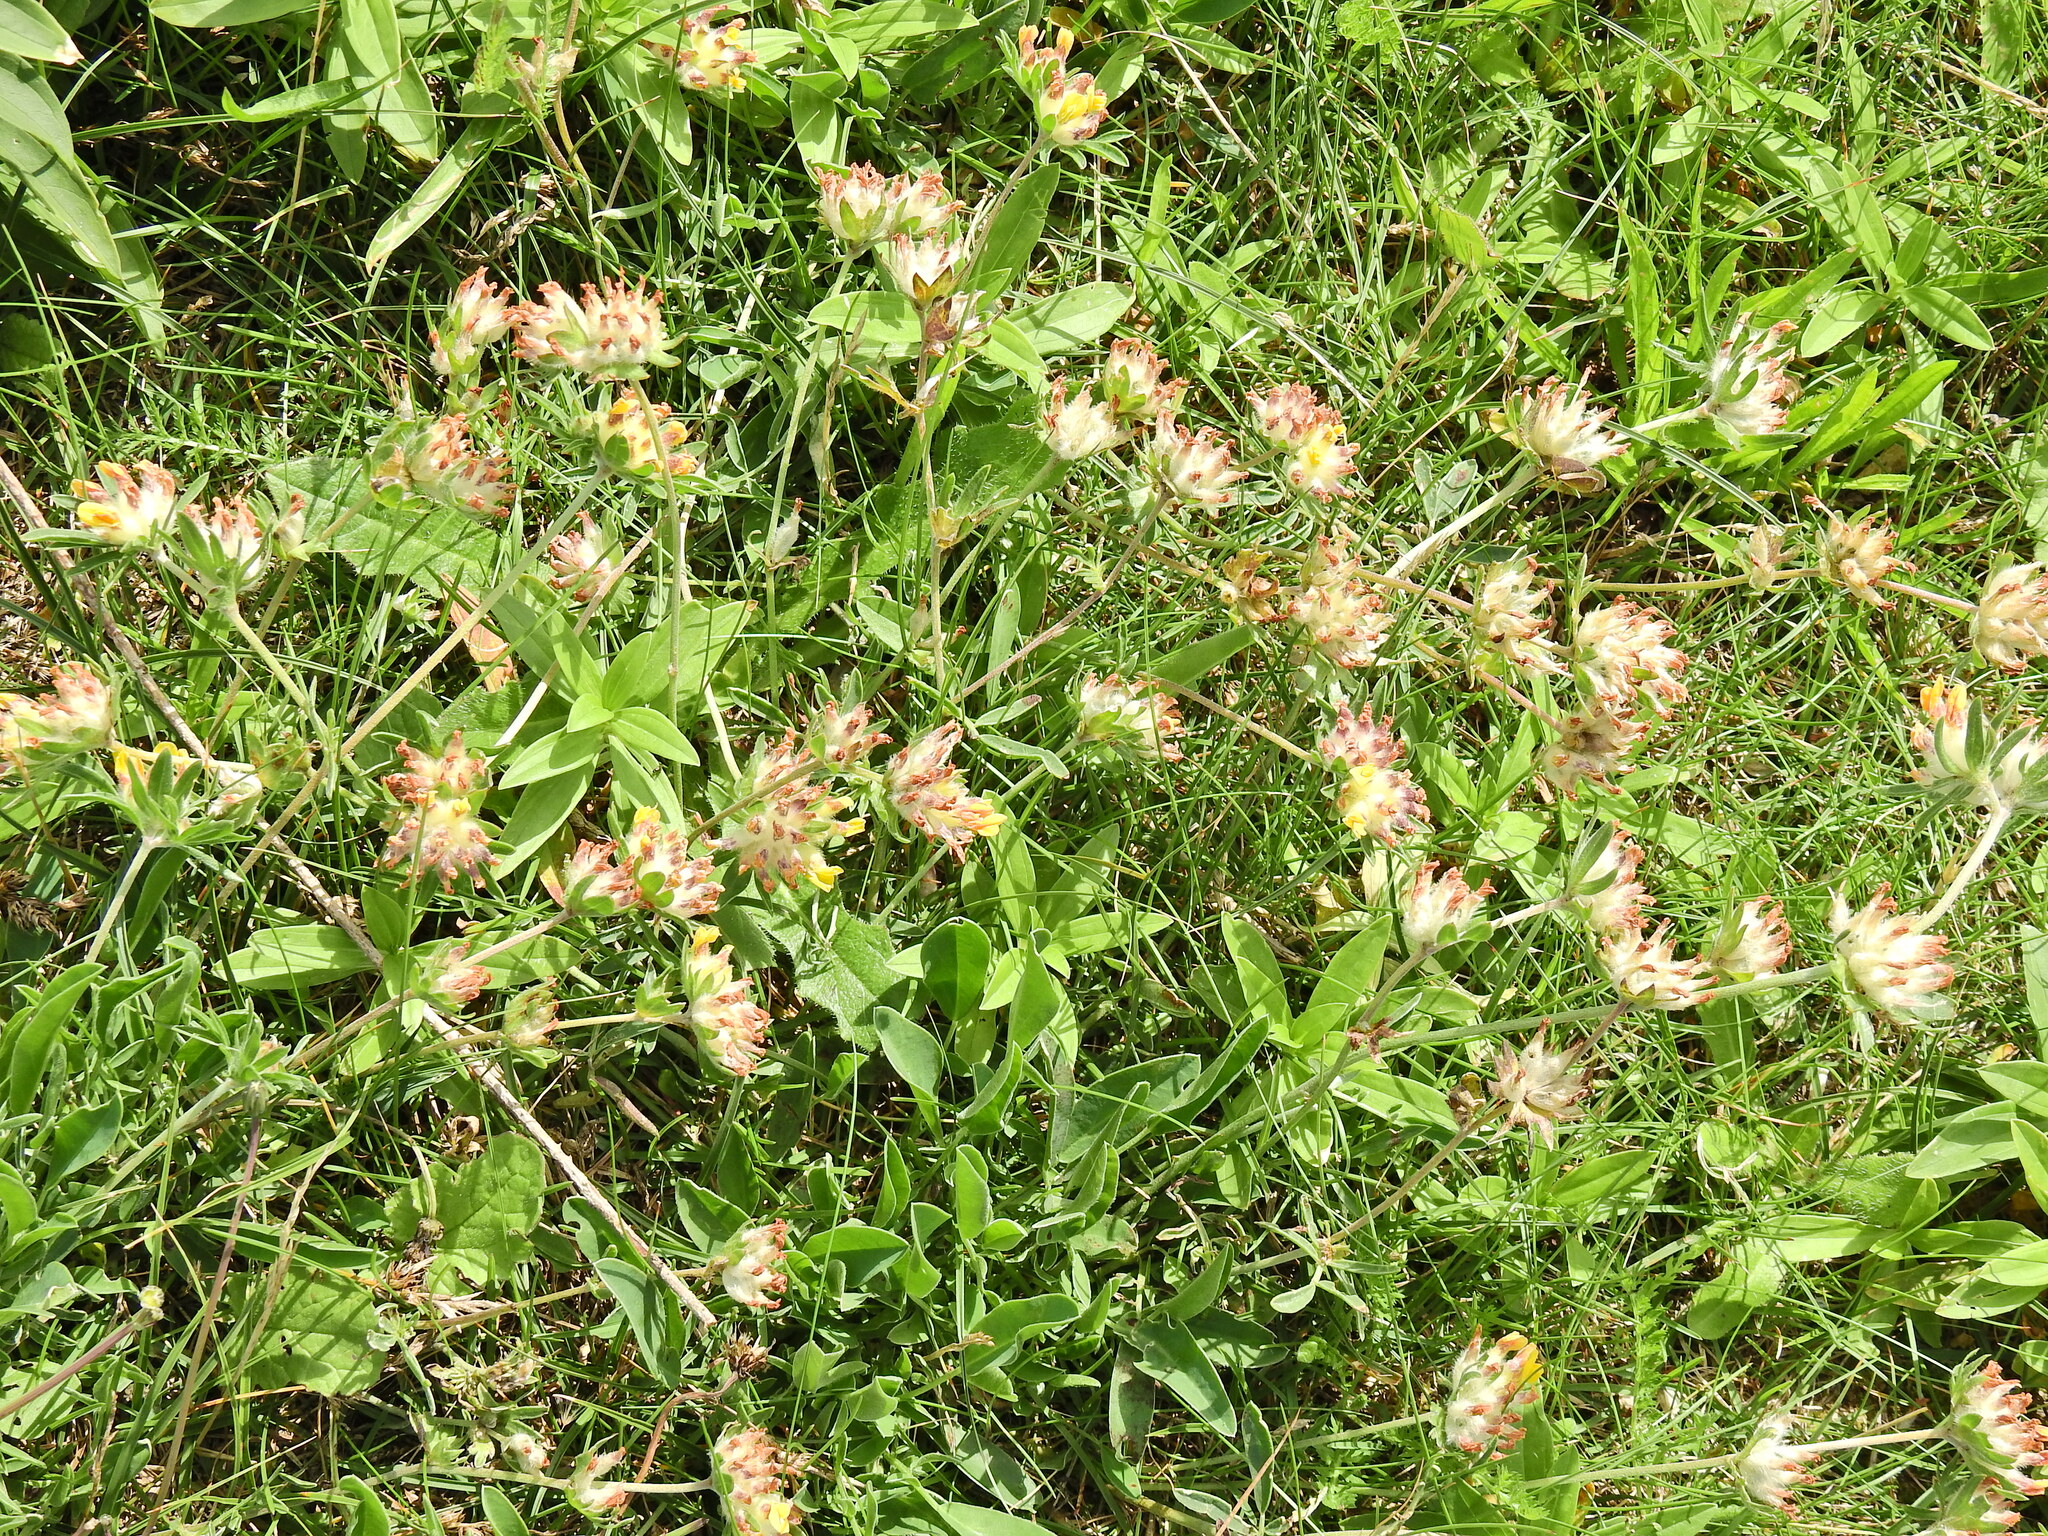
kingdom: Plantae
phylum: Tracheophyta
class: Magnoliopsida
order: Fabales
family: Fabaceae
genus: Anthyllis
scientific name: Anthyllis vulneraria
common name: Kidney vetch
